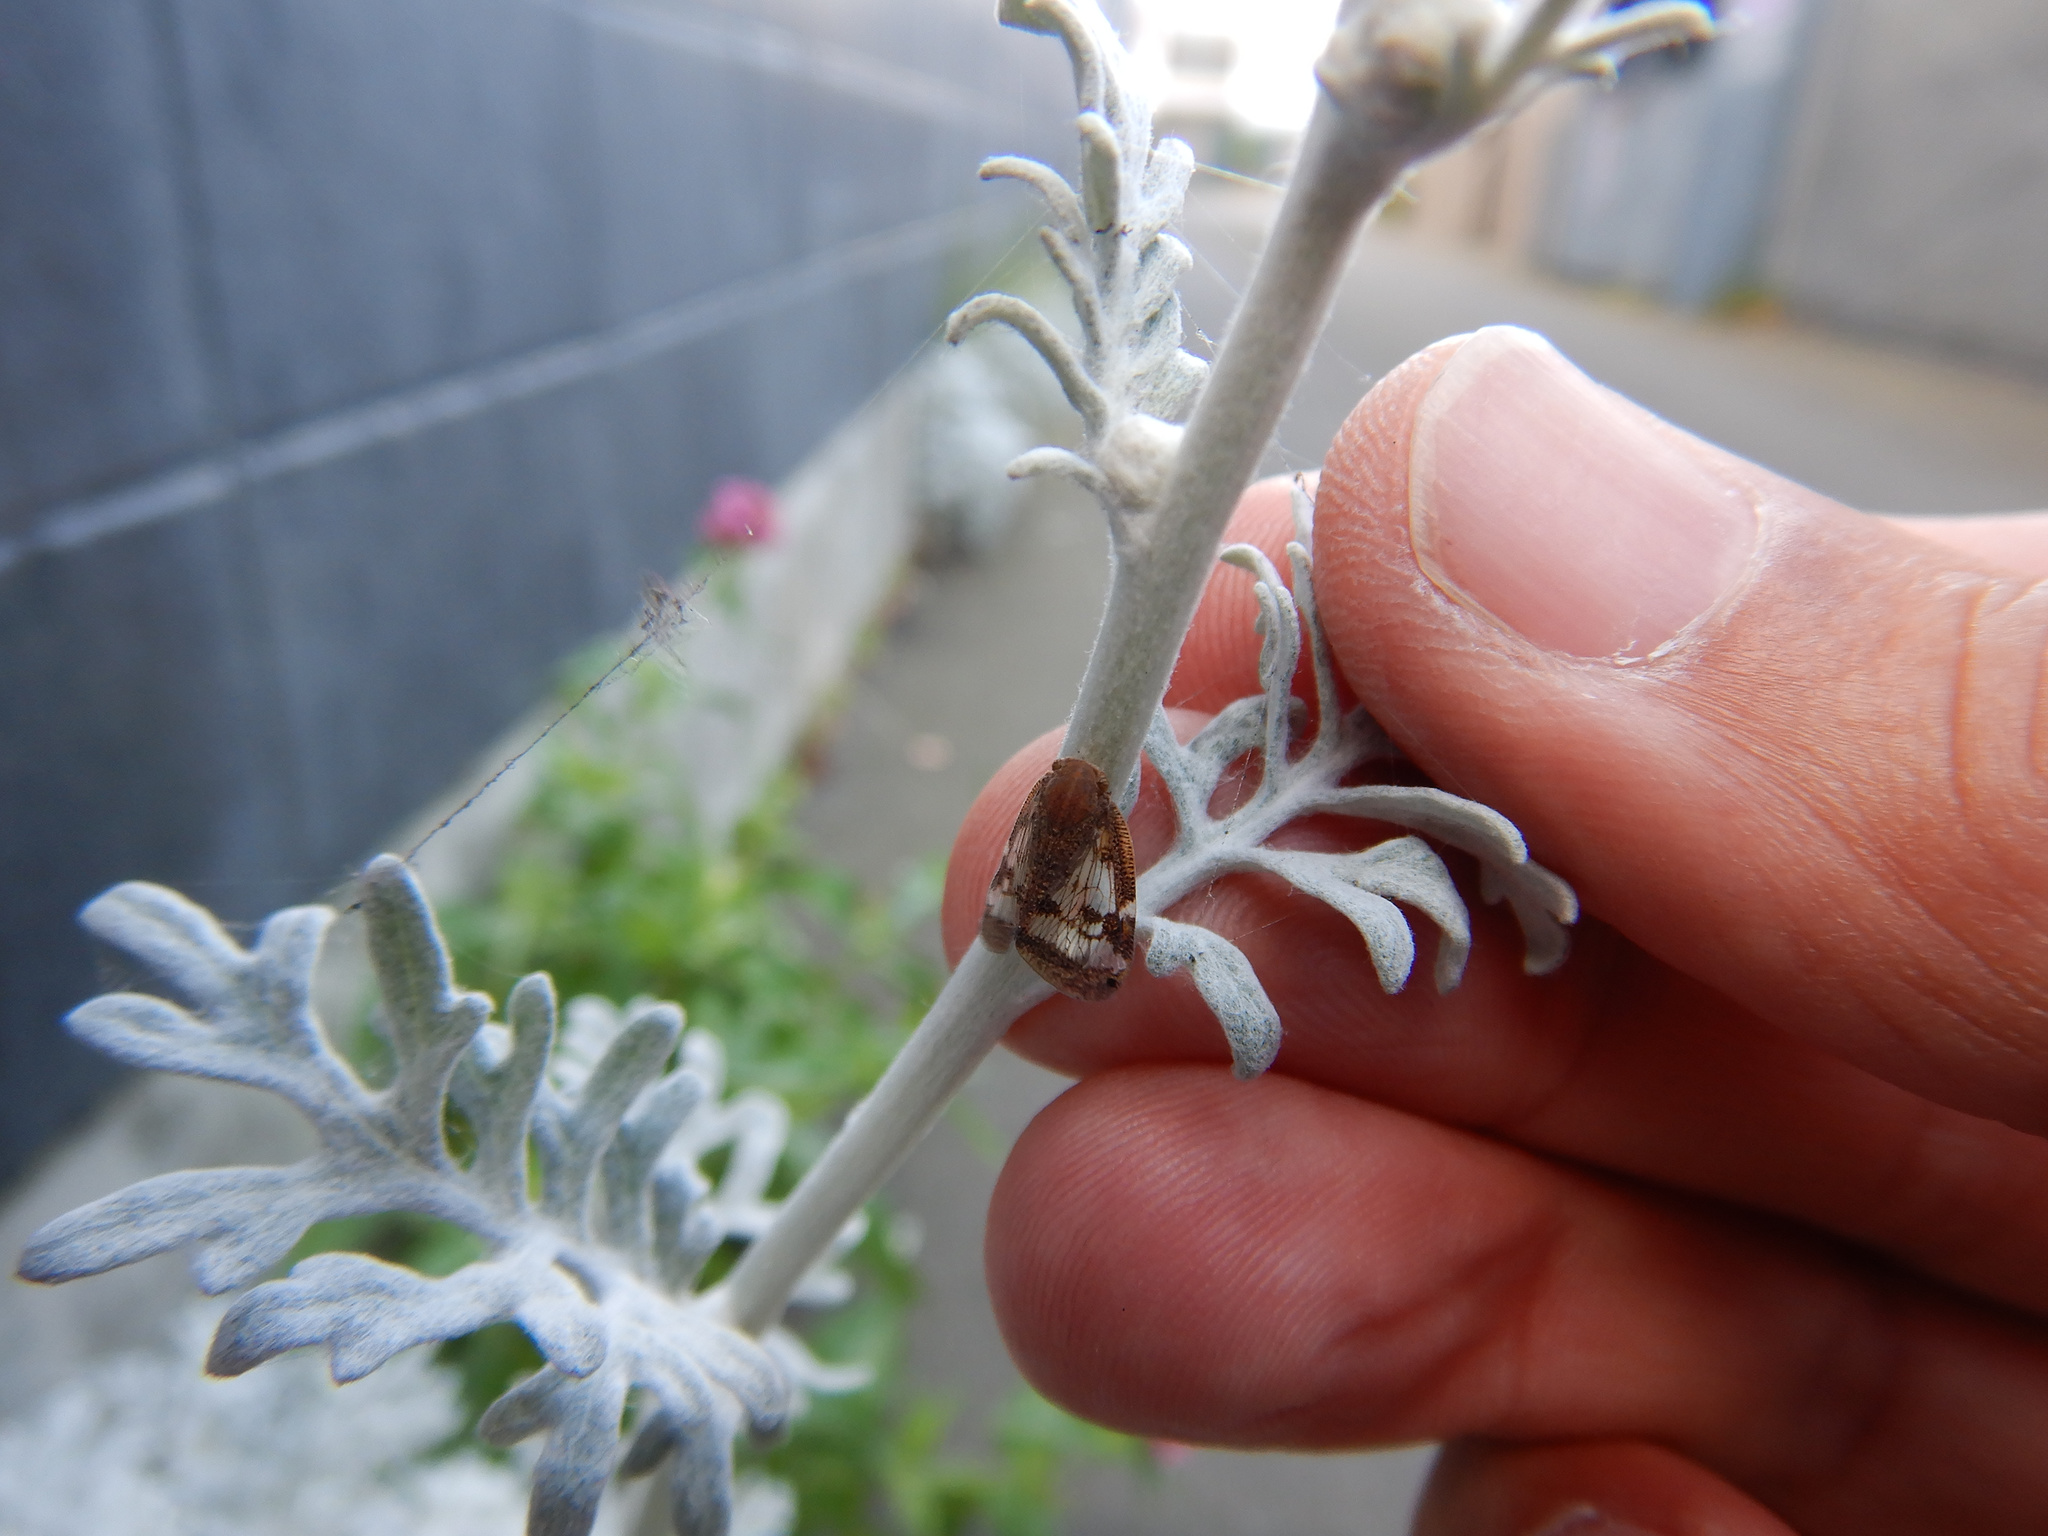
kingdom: Animalia
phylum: Arthropoda
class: Insecta
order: Hemiptera
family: Ricaniidae
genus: Scolypopa
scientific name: Scolypopa australis
